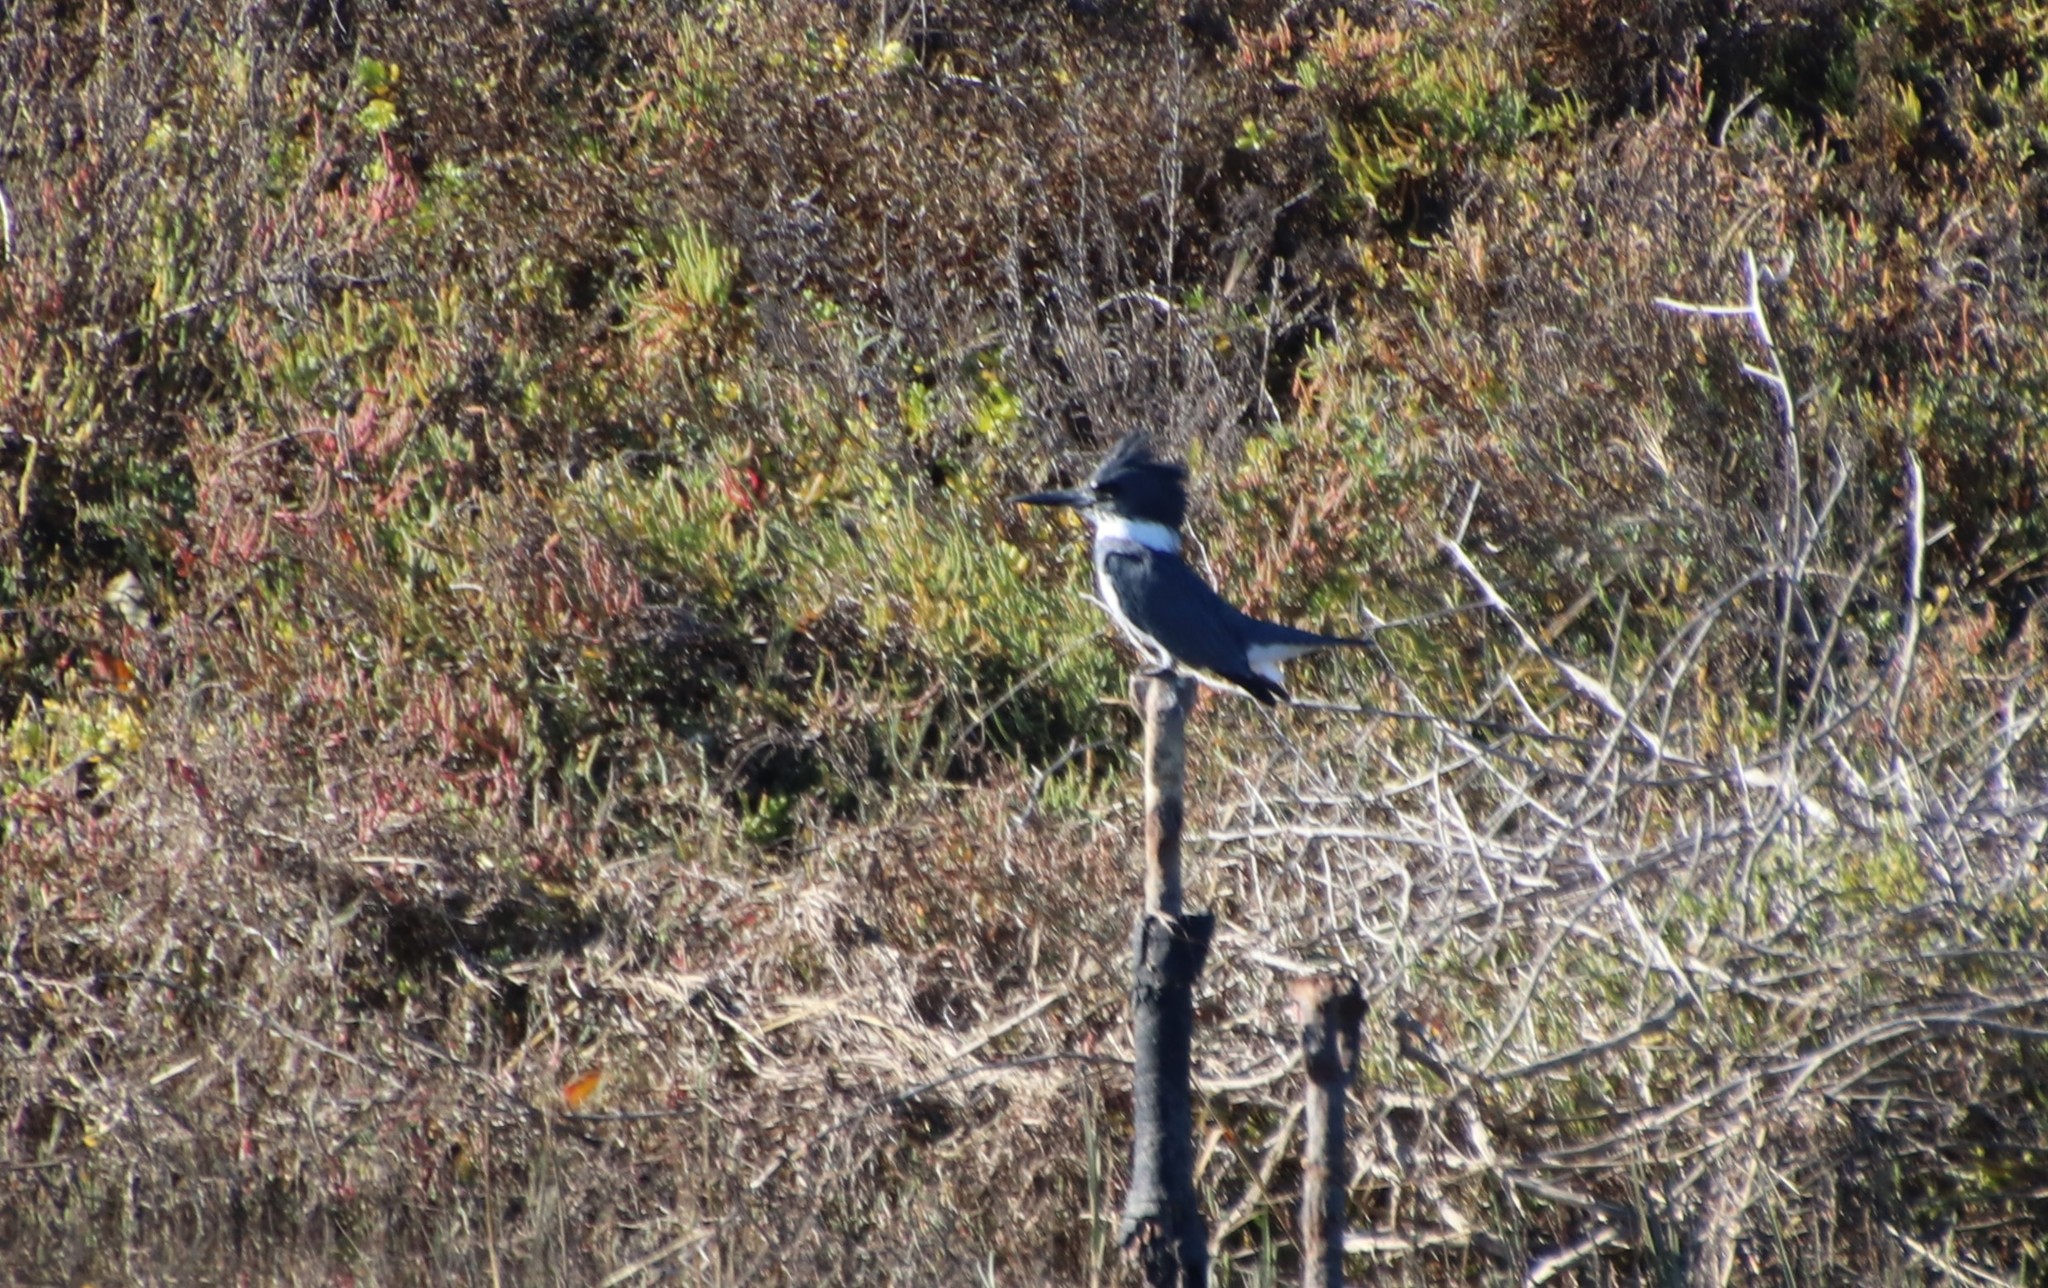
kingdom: Animalia
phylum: Chordata
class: Aves
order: Coraciiformes
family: Alcedinidae
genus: Megaceryle
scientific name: Megaceryle alcyon
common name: Belted kingfisher
